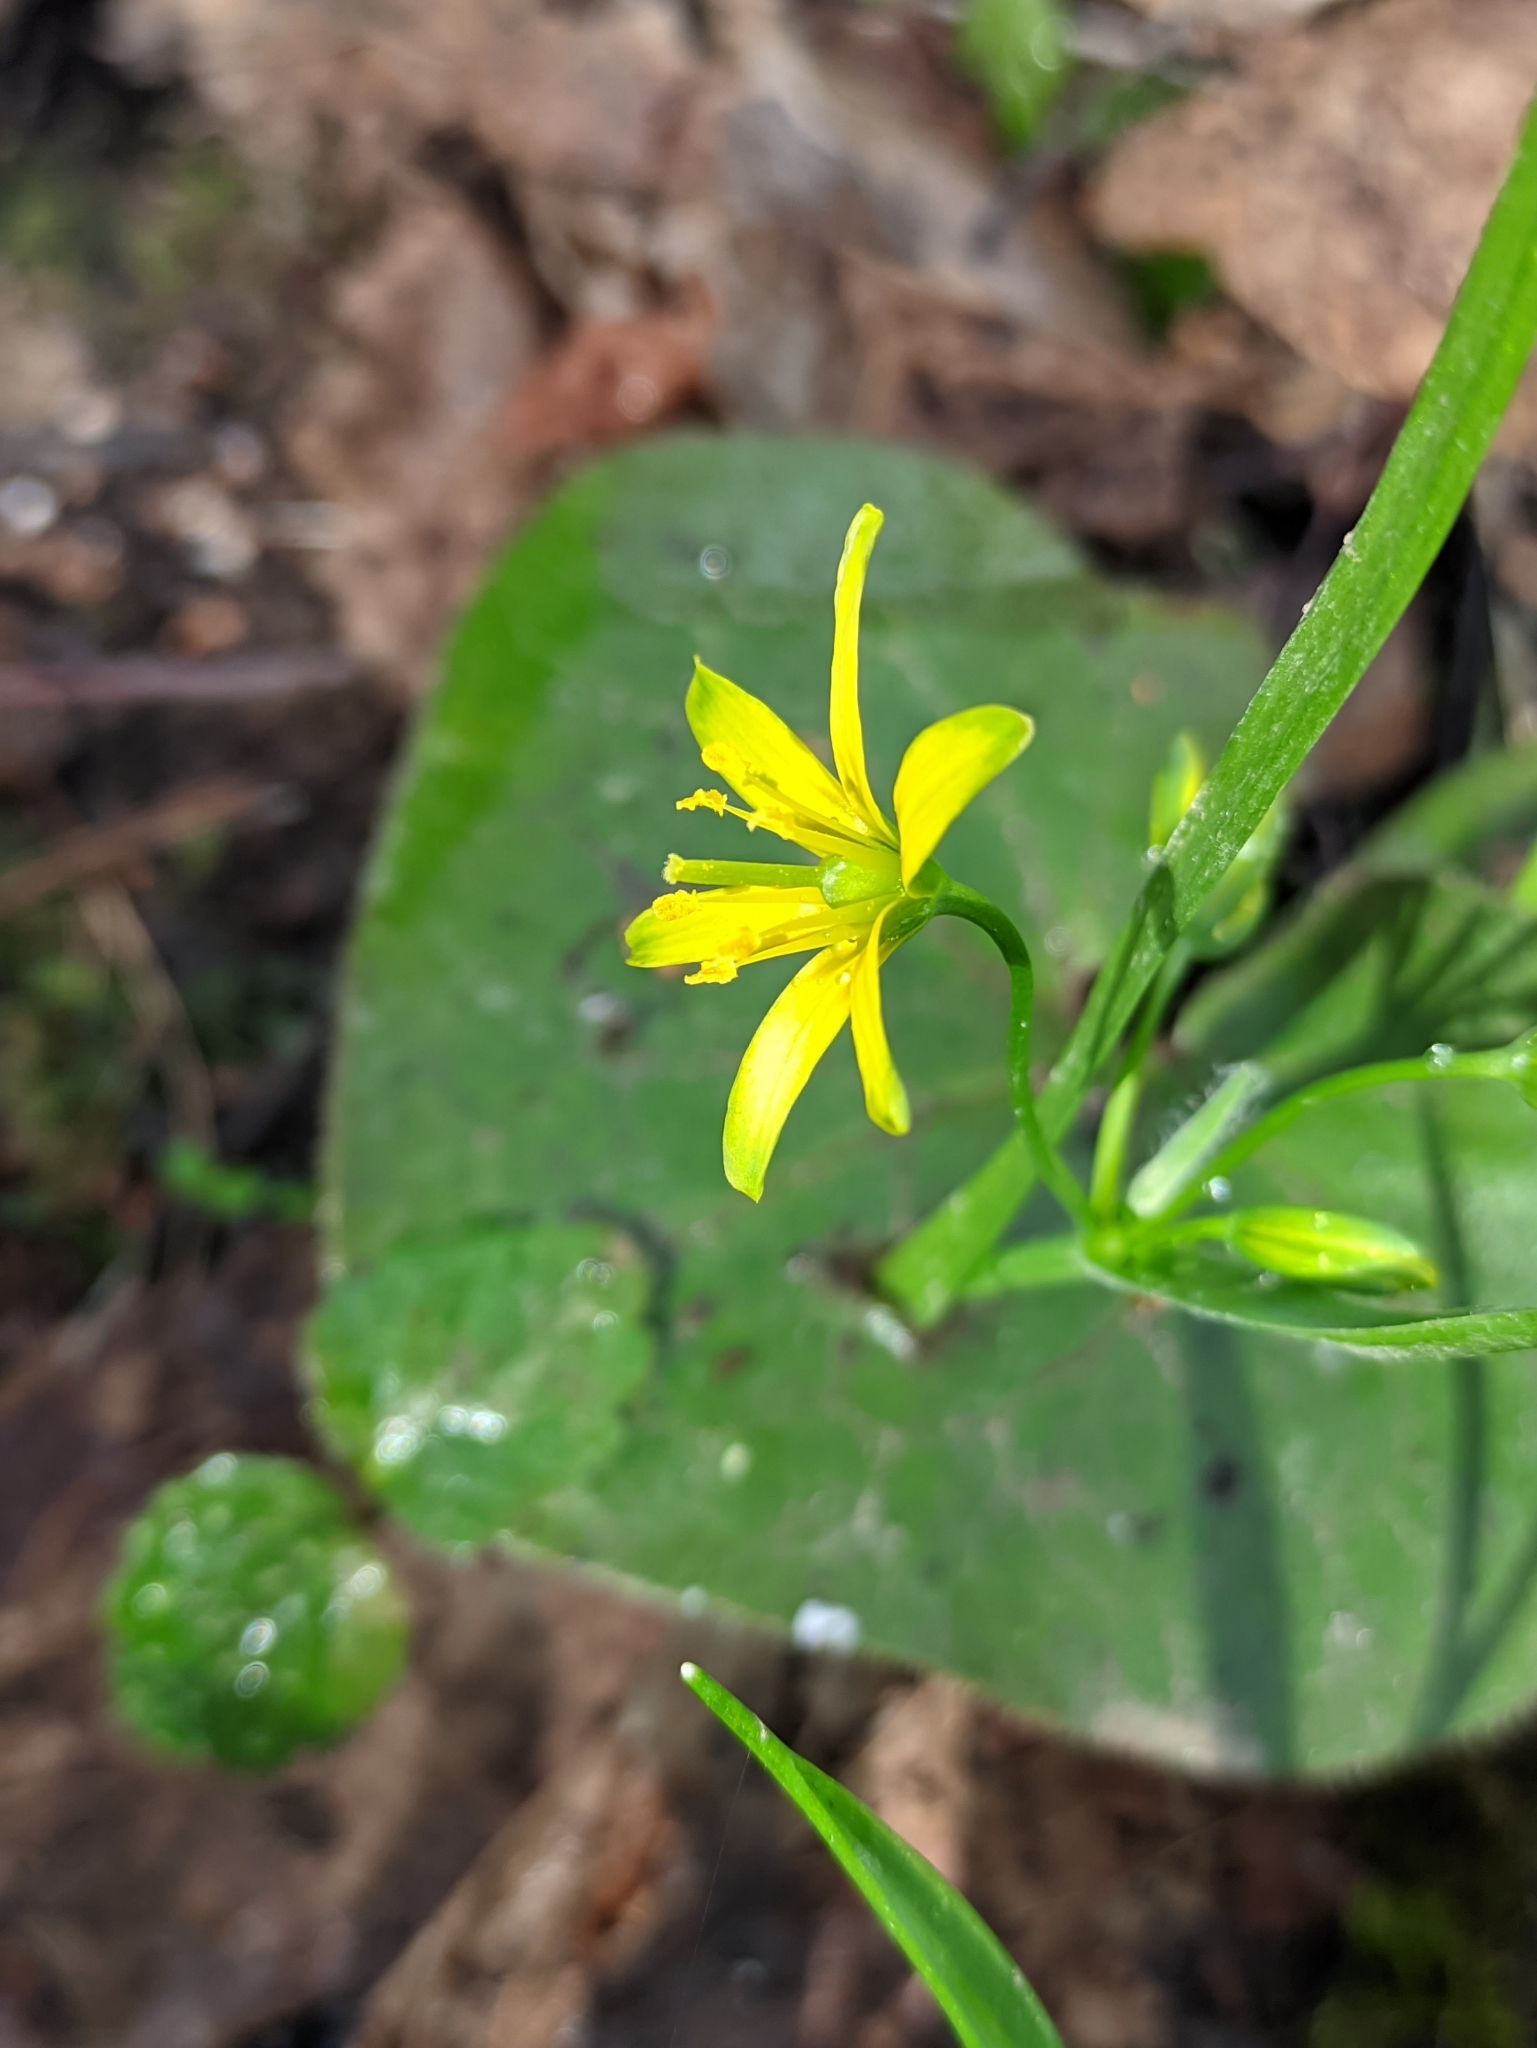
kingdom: Plantae
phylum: Tracheophyta
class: Liliopsida
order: Liliales
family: Liliaceae
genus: Gagea
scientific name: Gagea lutea
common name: Yellow star-of-bethlehem
